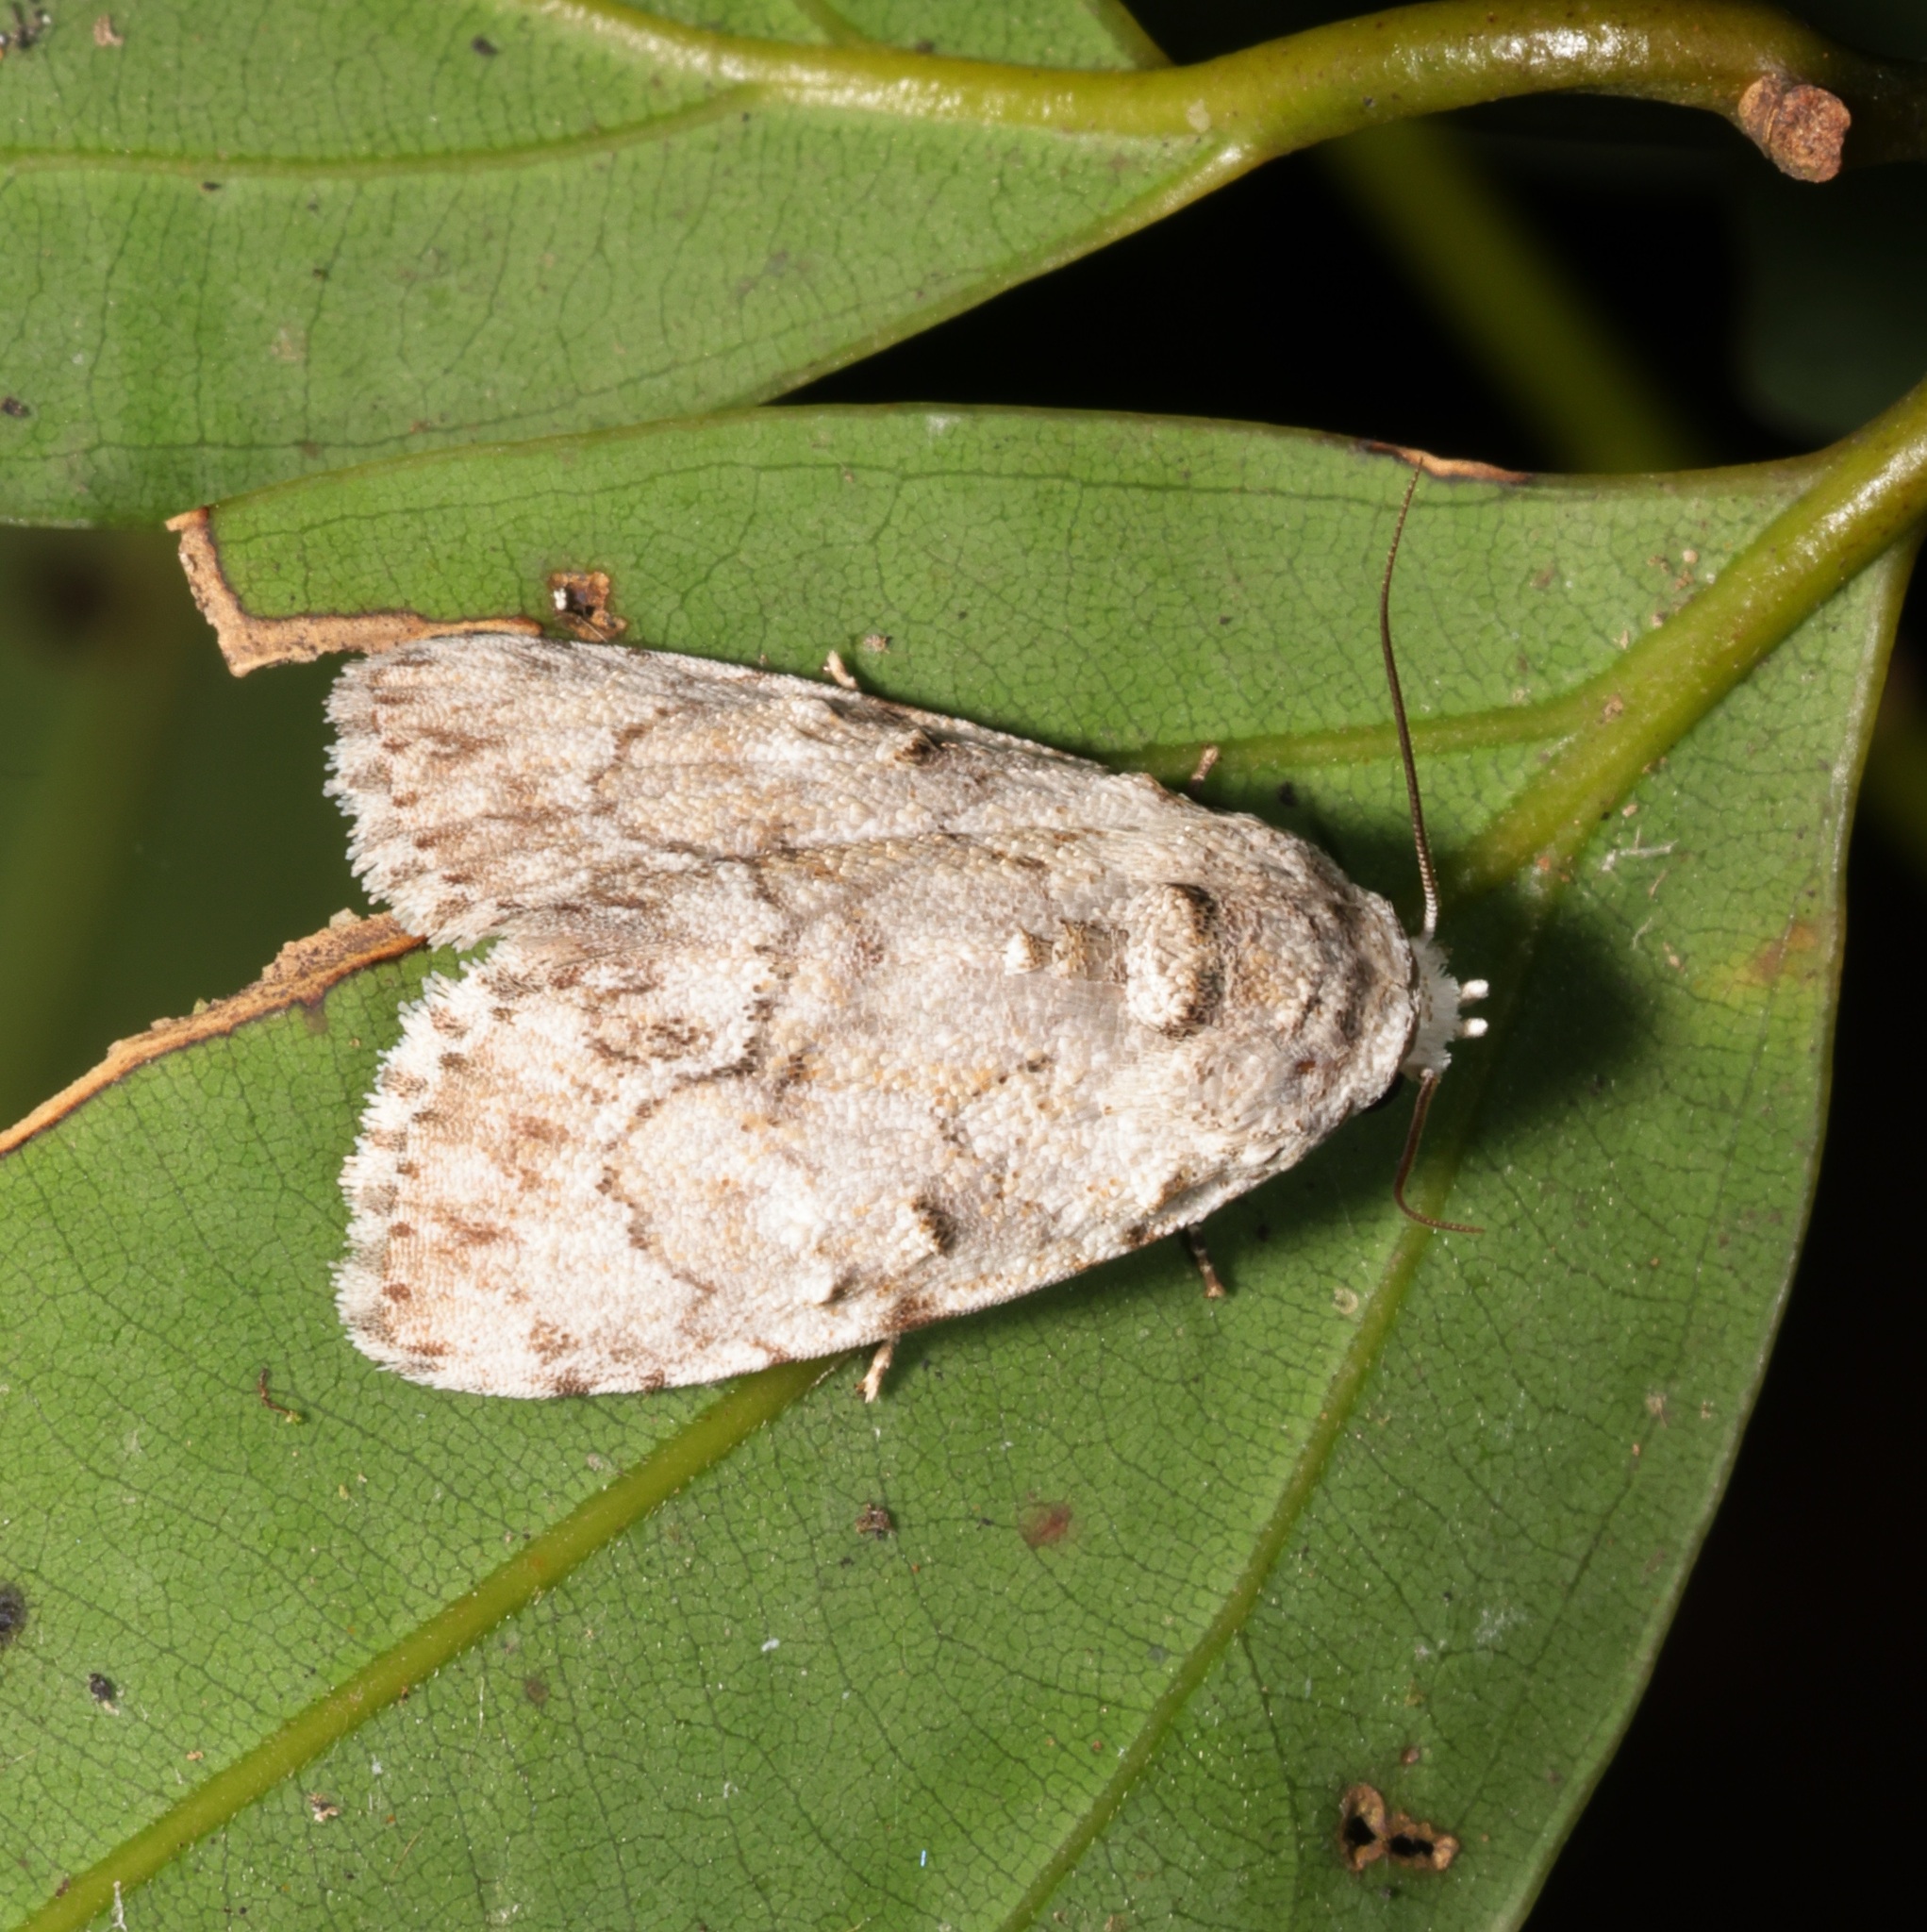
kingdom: Animalia
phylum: Arthropoda
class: Insecta
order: Lepidoptera
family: Nolidae
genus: Barasa
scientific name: Barasa acronyctoides
